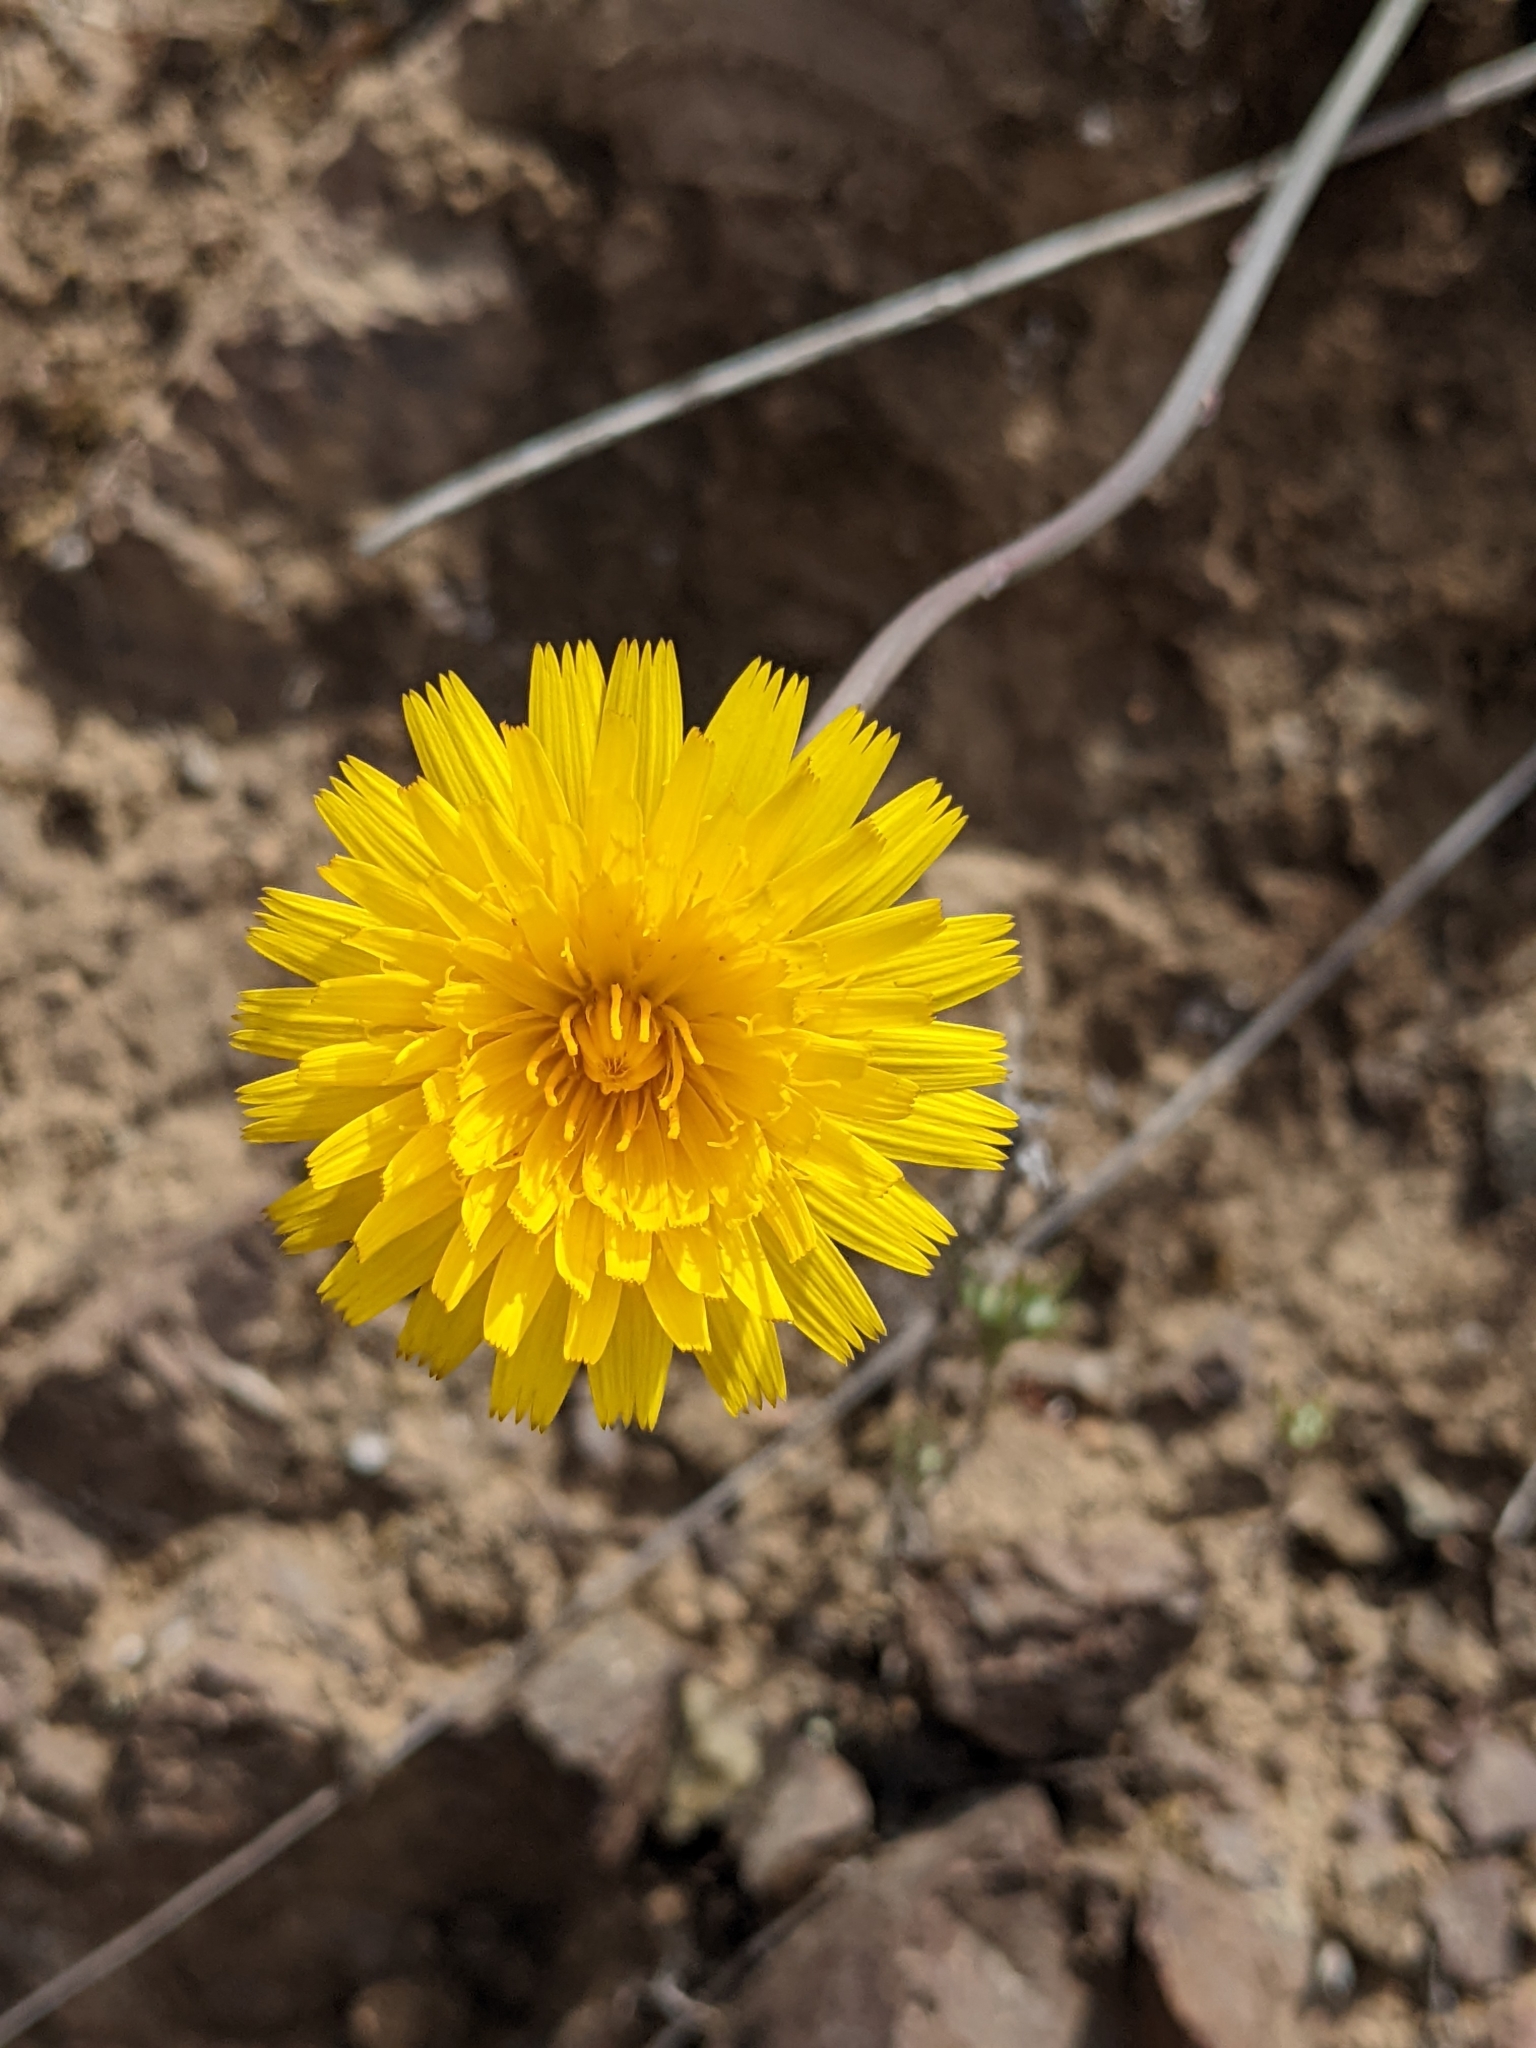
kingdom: Plantae
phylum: Tracheophyta
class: Magnoliopsida
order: Asterales
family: Asteraceae
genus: Hypochaeris
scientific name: Hypochaeris radicata
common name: Flatweed
